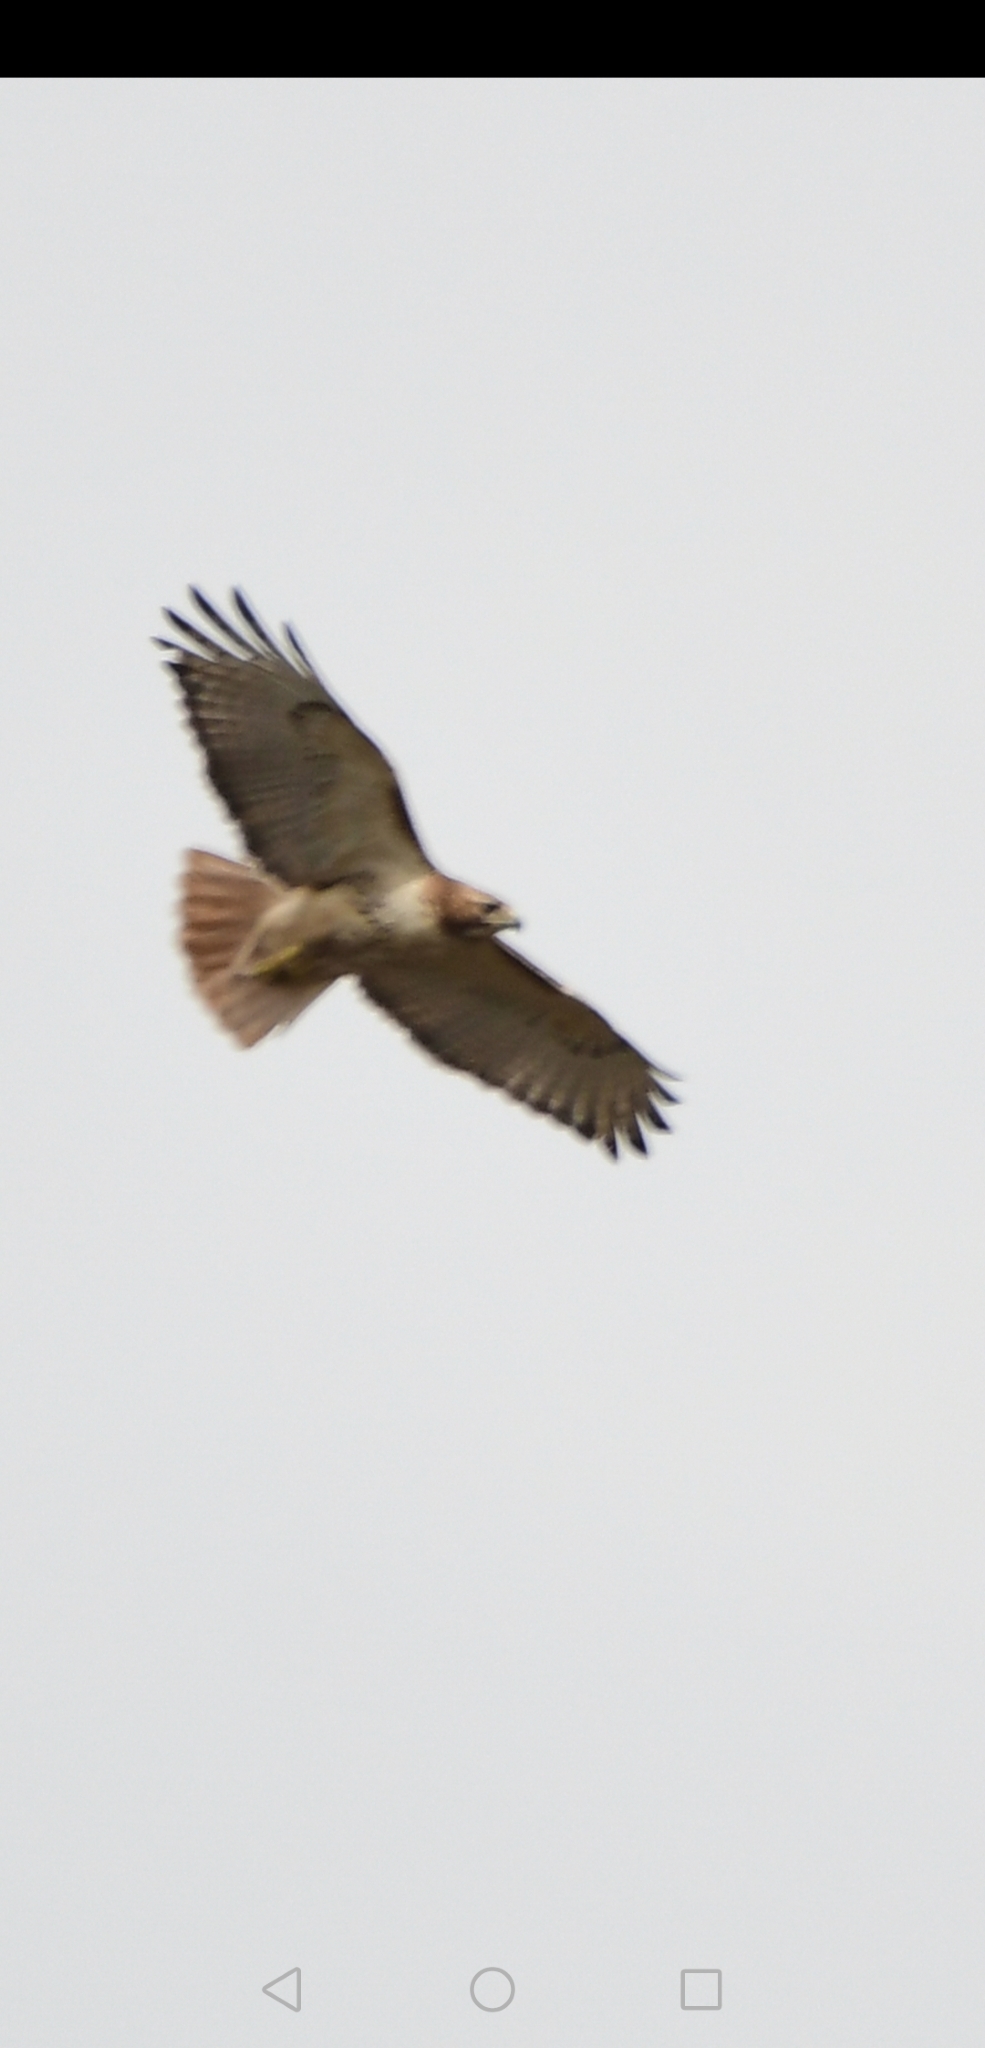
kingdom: Animalia
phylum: Chordata
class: Aves
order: Accipitriformes
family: Accipitridae
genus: Buteo
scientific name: Buteo jamaicensis
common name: Red-tailed hawk
